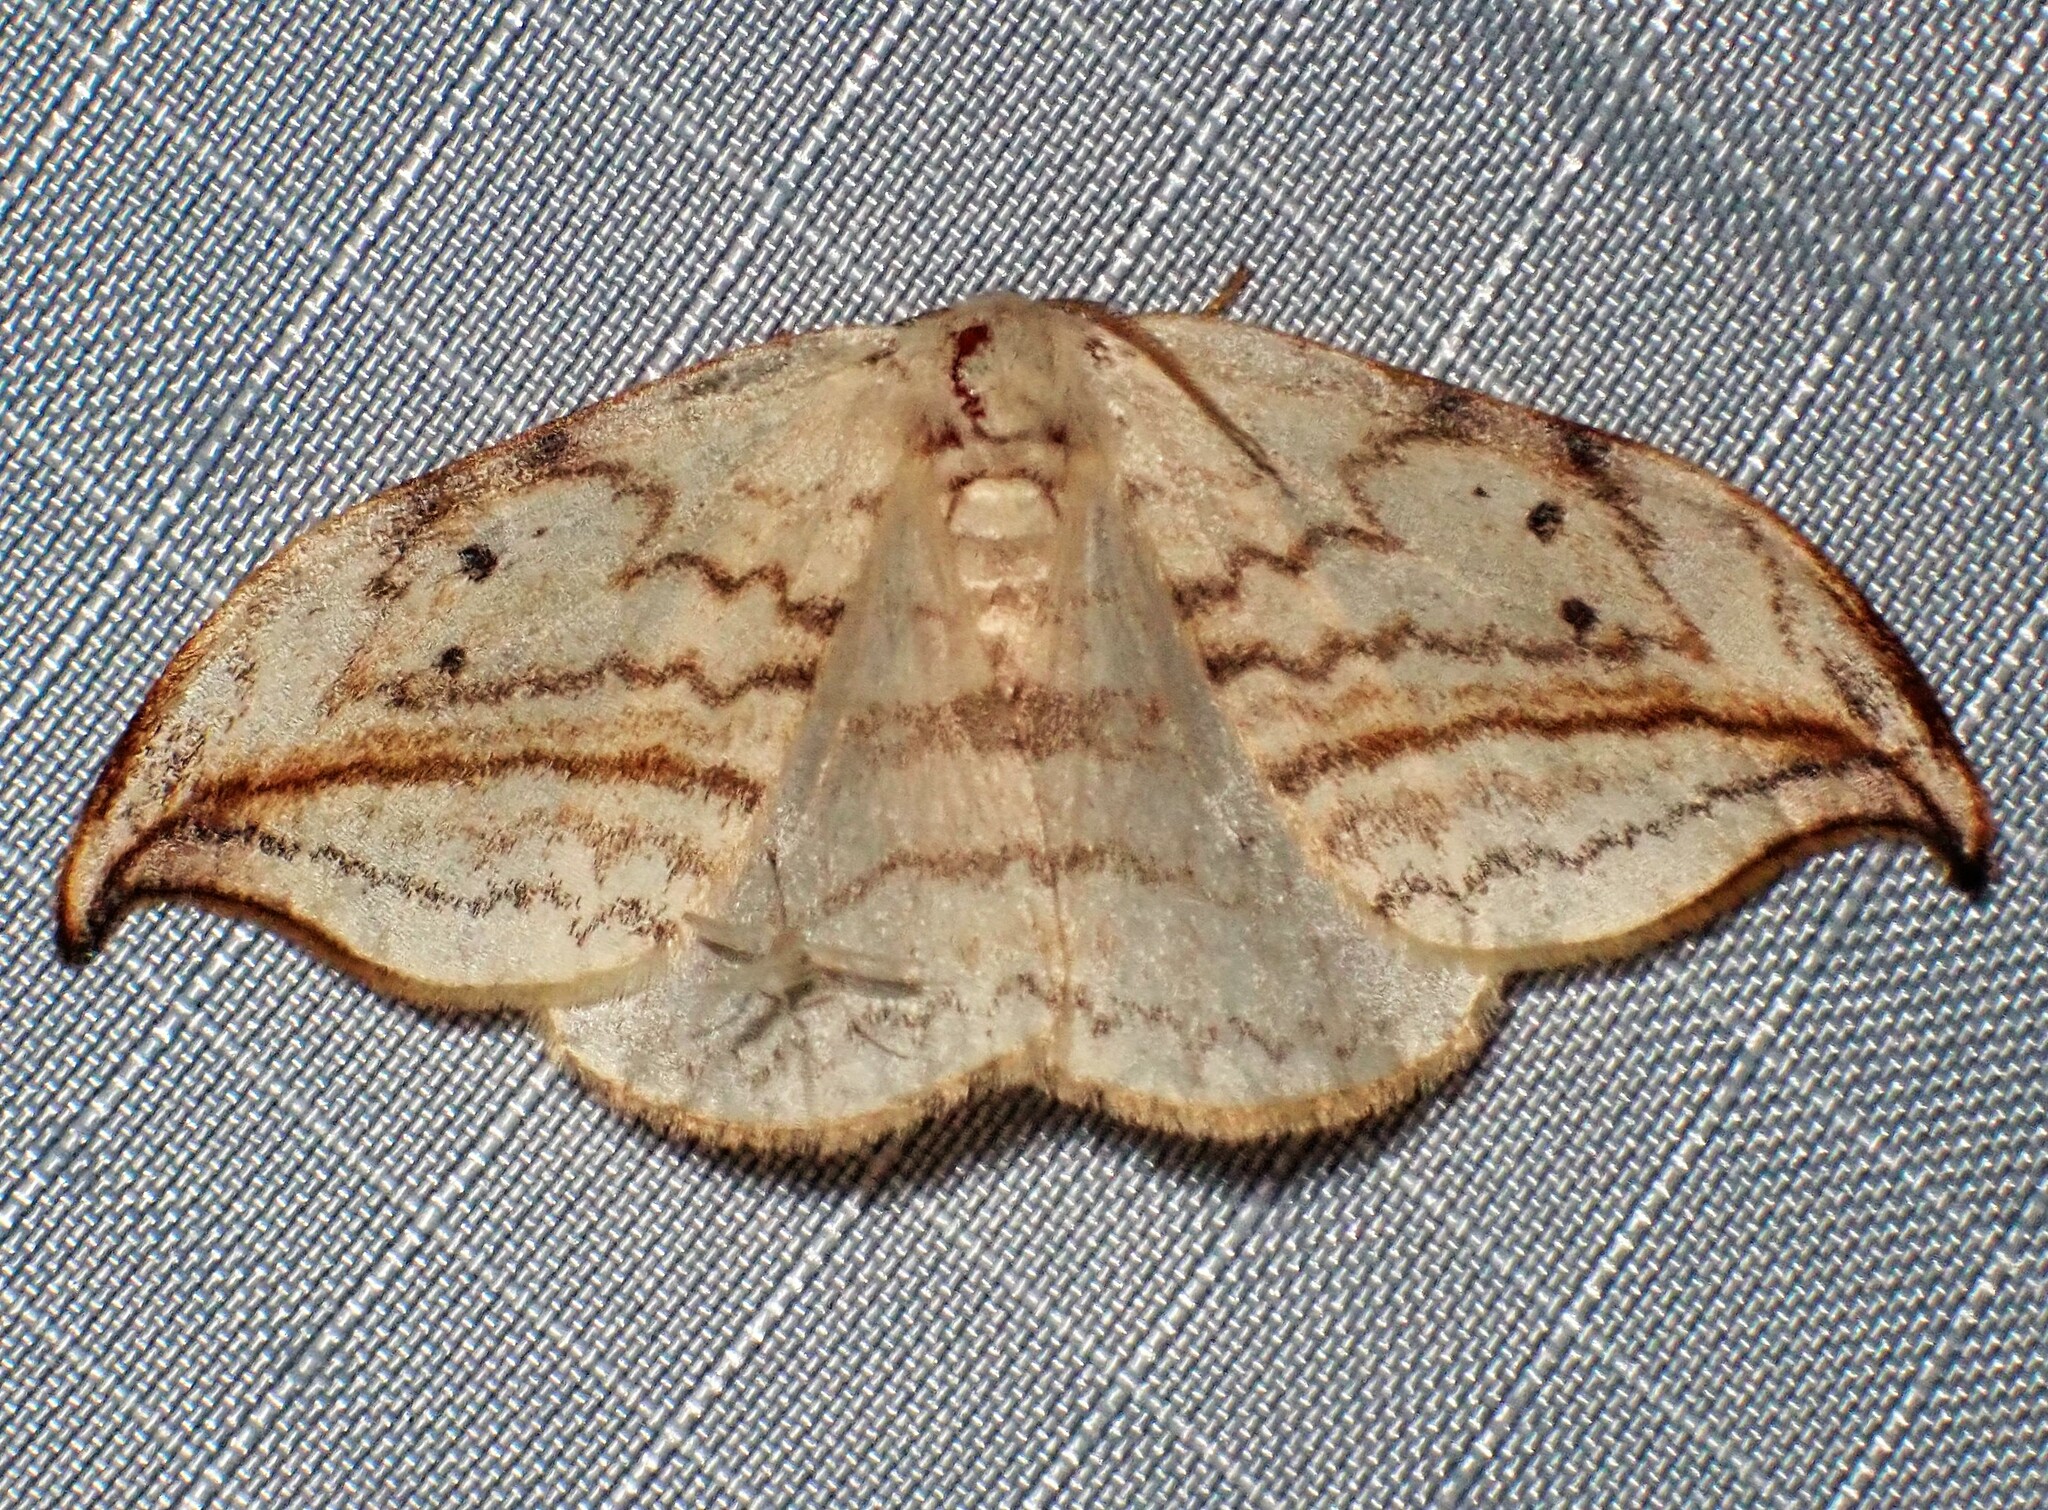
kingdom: Animalia
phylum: Arthropoda
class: Insecta
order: Lepidoptera
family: Drepanidae
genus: Drepana
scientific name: Drepana arcuata
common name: Arched hooktip moth
